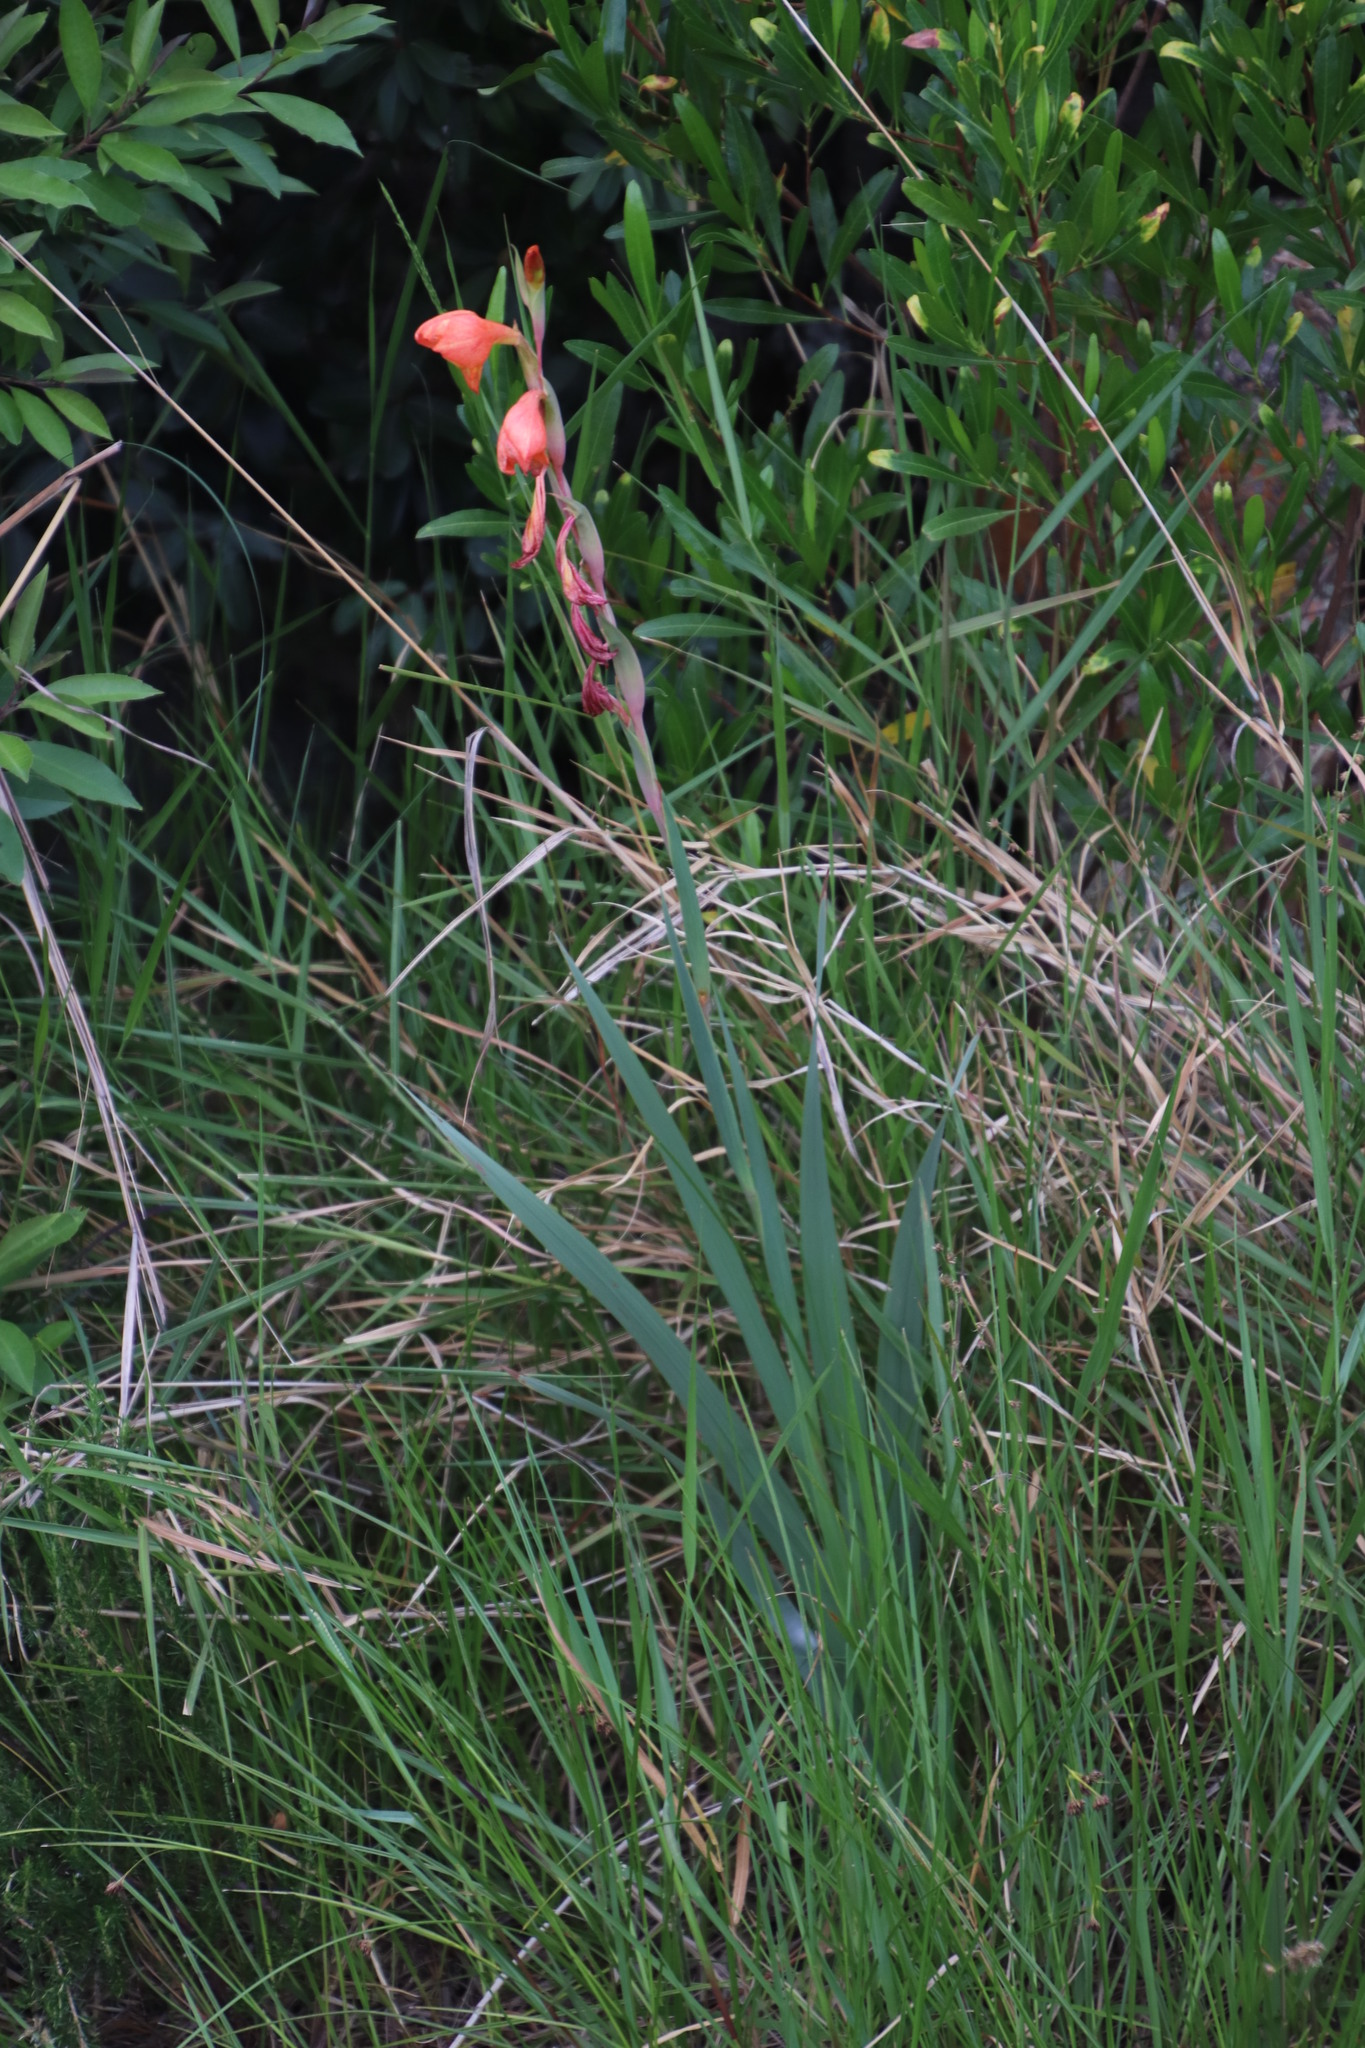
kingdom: Plantae
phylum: Tracheophyta
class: Liliopsida
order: Asparagales
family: Iridaceae
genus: Gladiolus
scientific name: Gladiolus dalenii
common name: Cornflag
